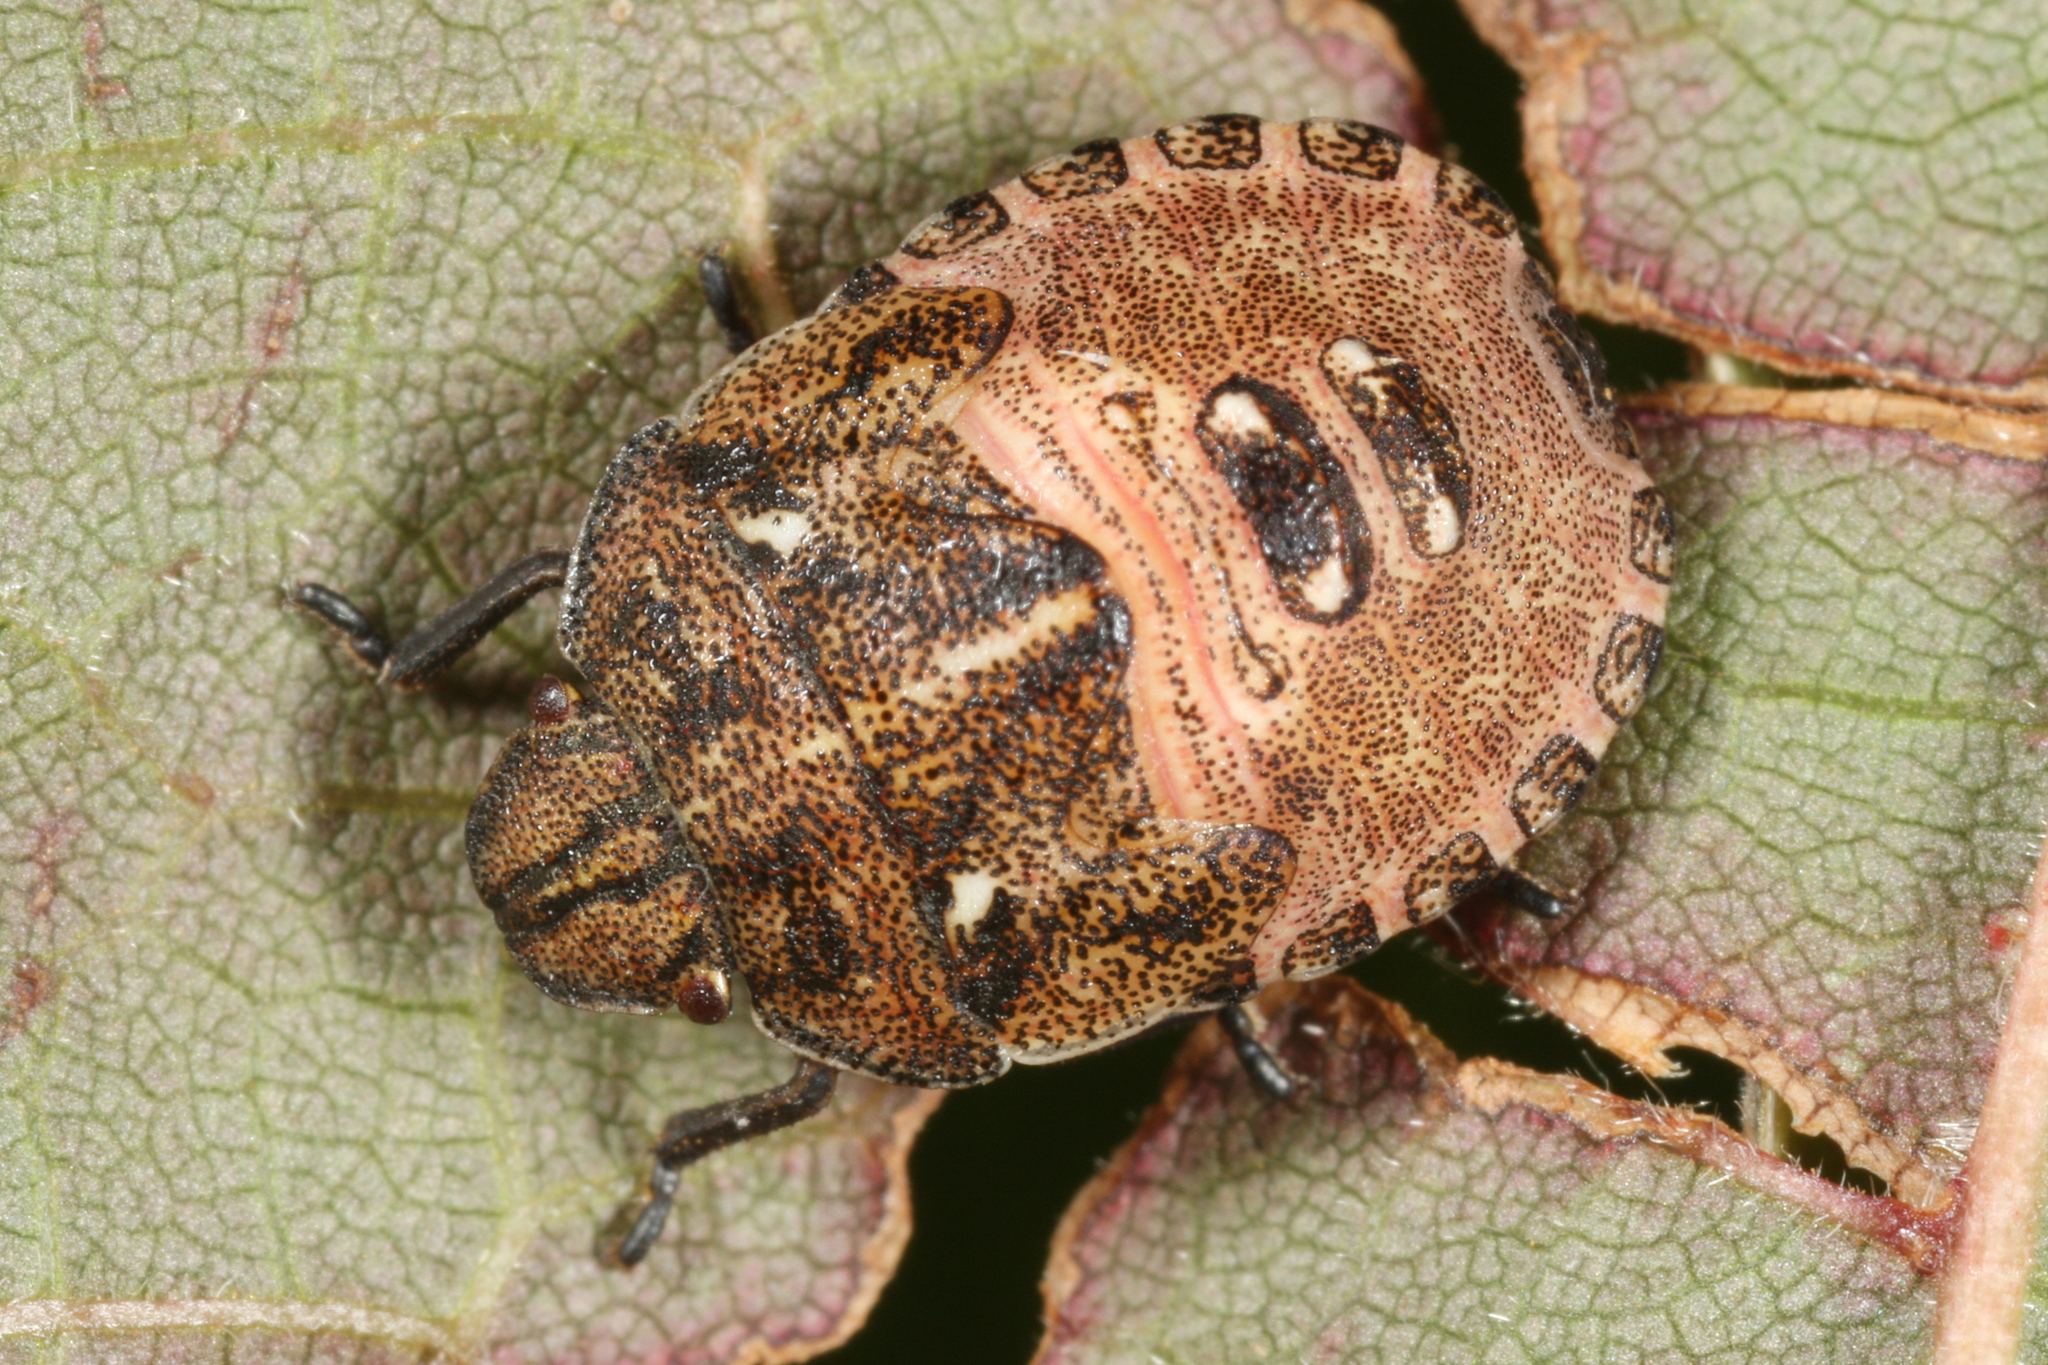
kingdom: Animalia
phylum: Arthropoda
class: Insecta
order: Hemiptera
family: Scutelleridae
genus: Eurygaster
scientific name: Eurygaster testudinaria
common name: Tortoise bug
